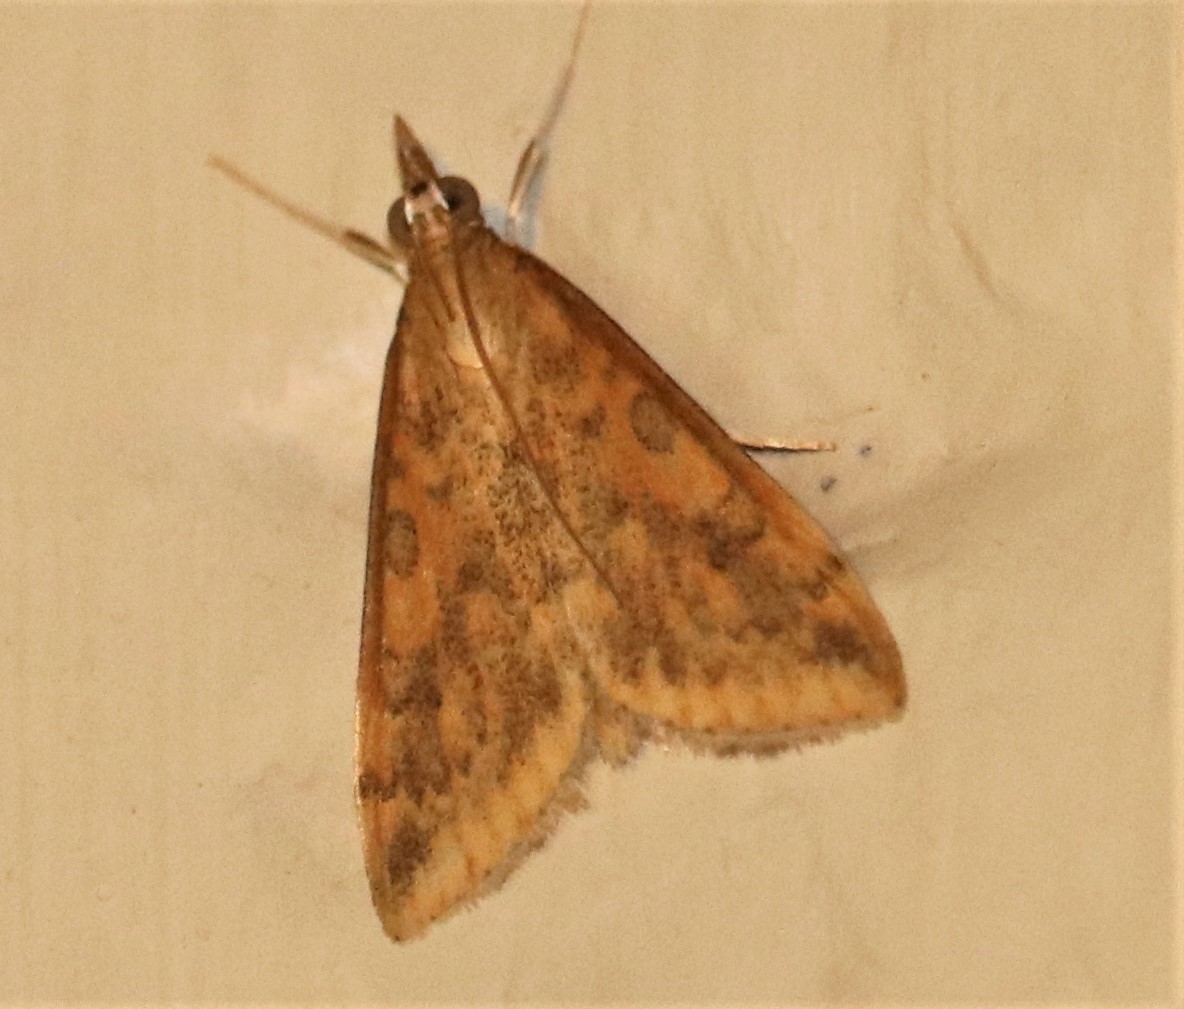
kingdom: Animalia
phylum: Arthropoda
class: Insecta
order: Lepidoptera
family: Crambidae
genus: Udea
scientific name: Udea ferrugalis
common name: Rusty dot
